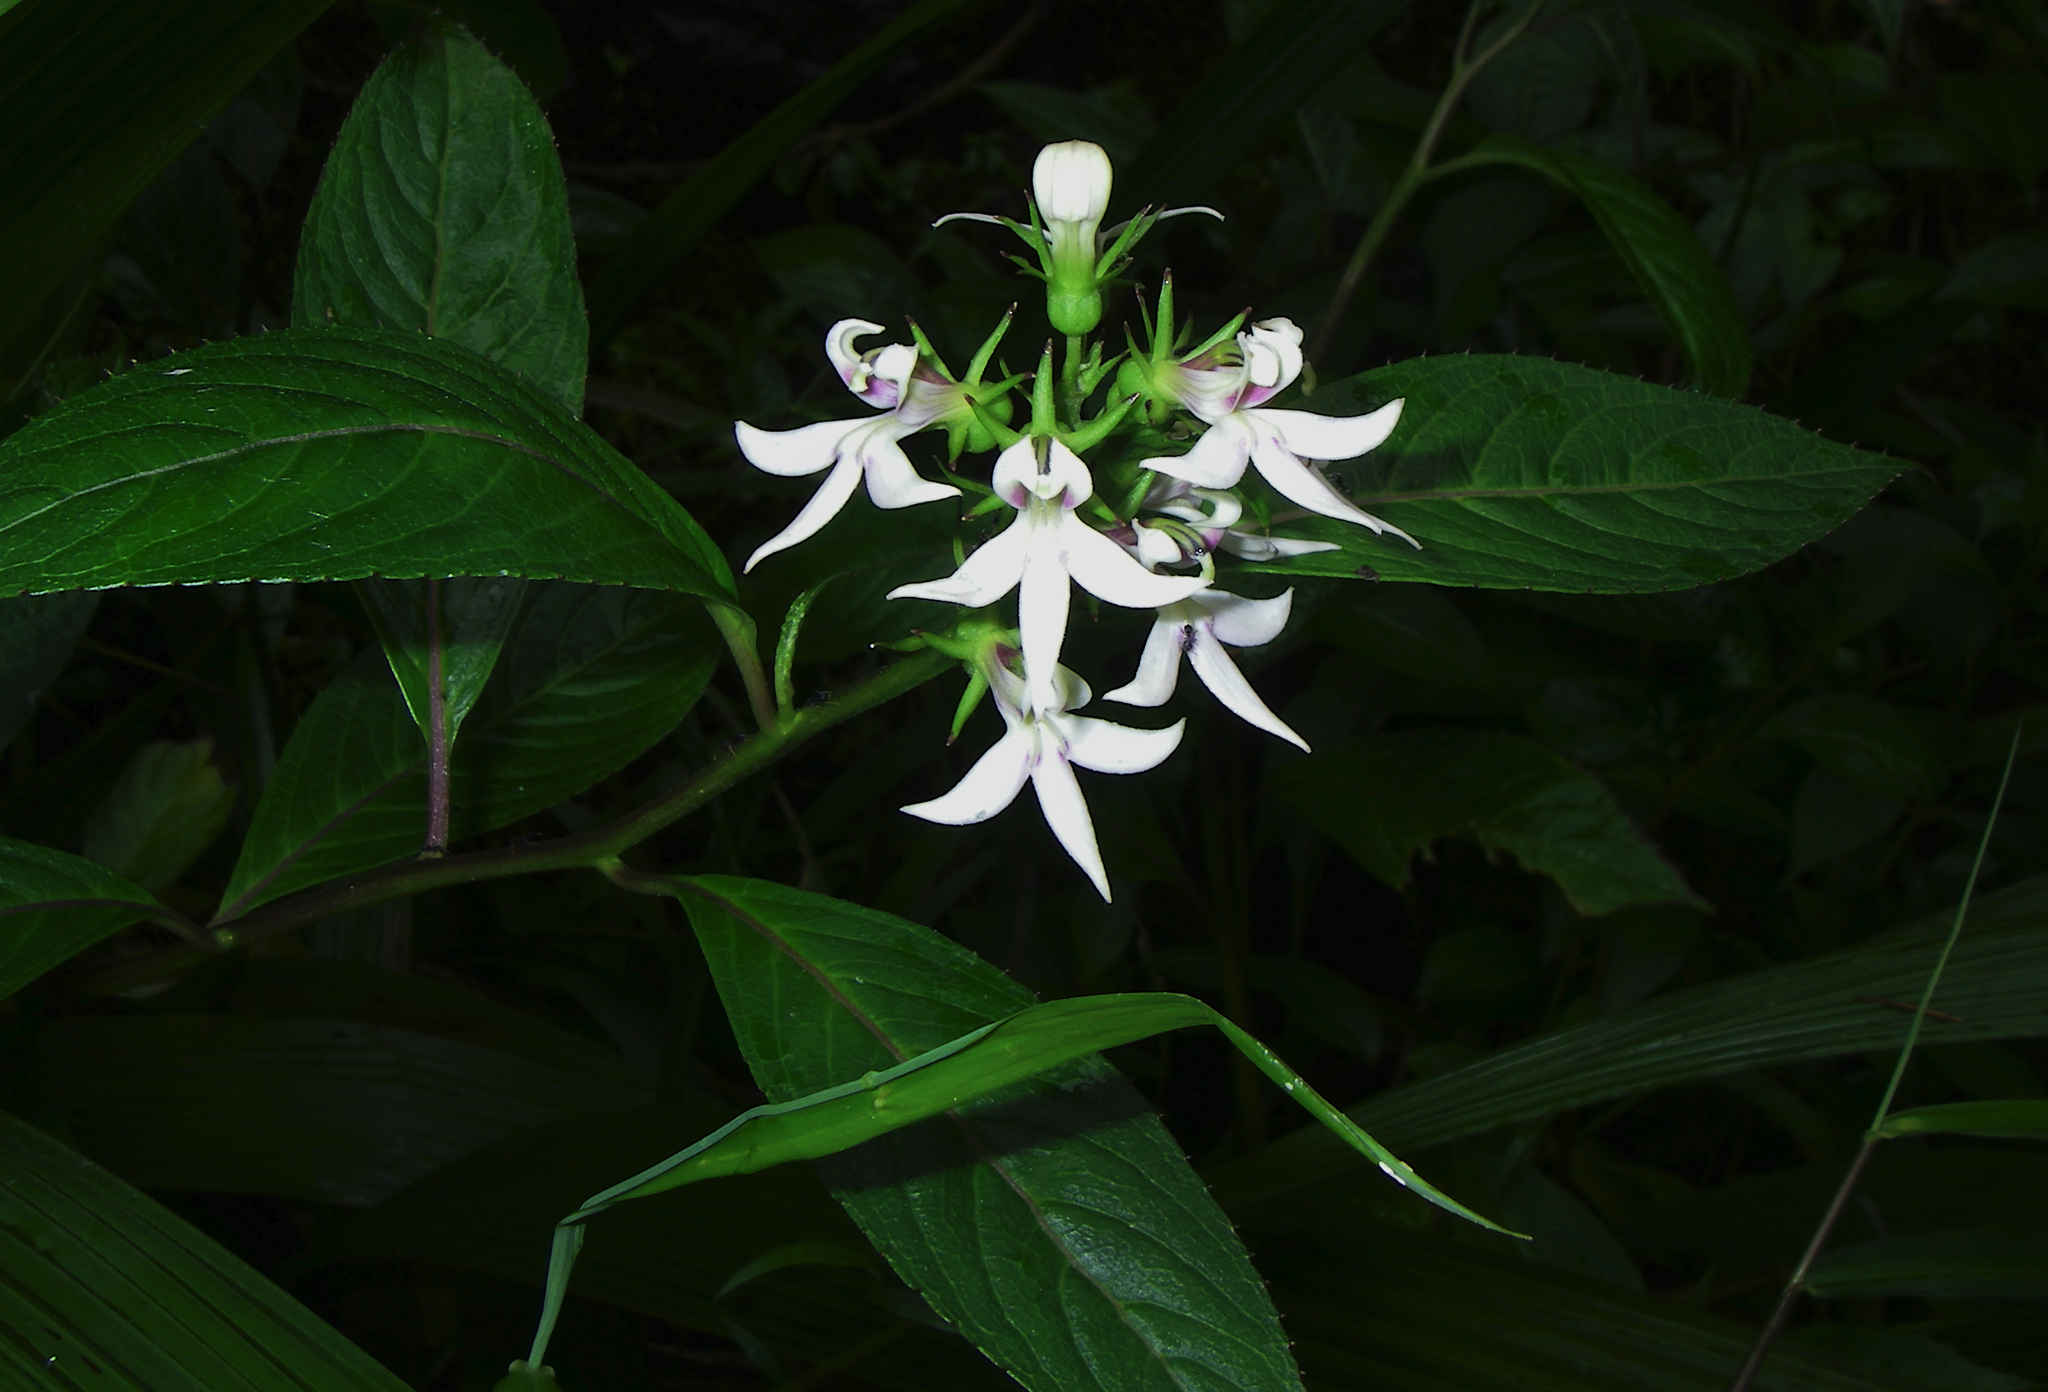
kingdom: Plantae
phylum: Tracheophyta
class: Magnoliopsida
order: Asterales
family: Campanulaceae
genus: Lobelia
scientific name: Lobelia borneensis
